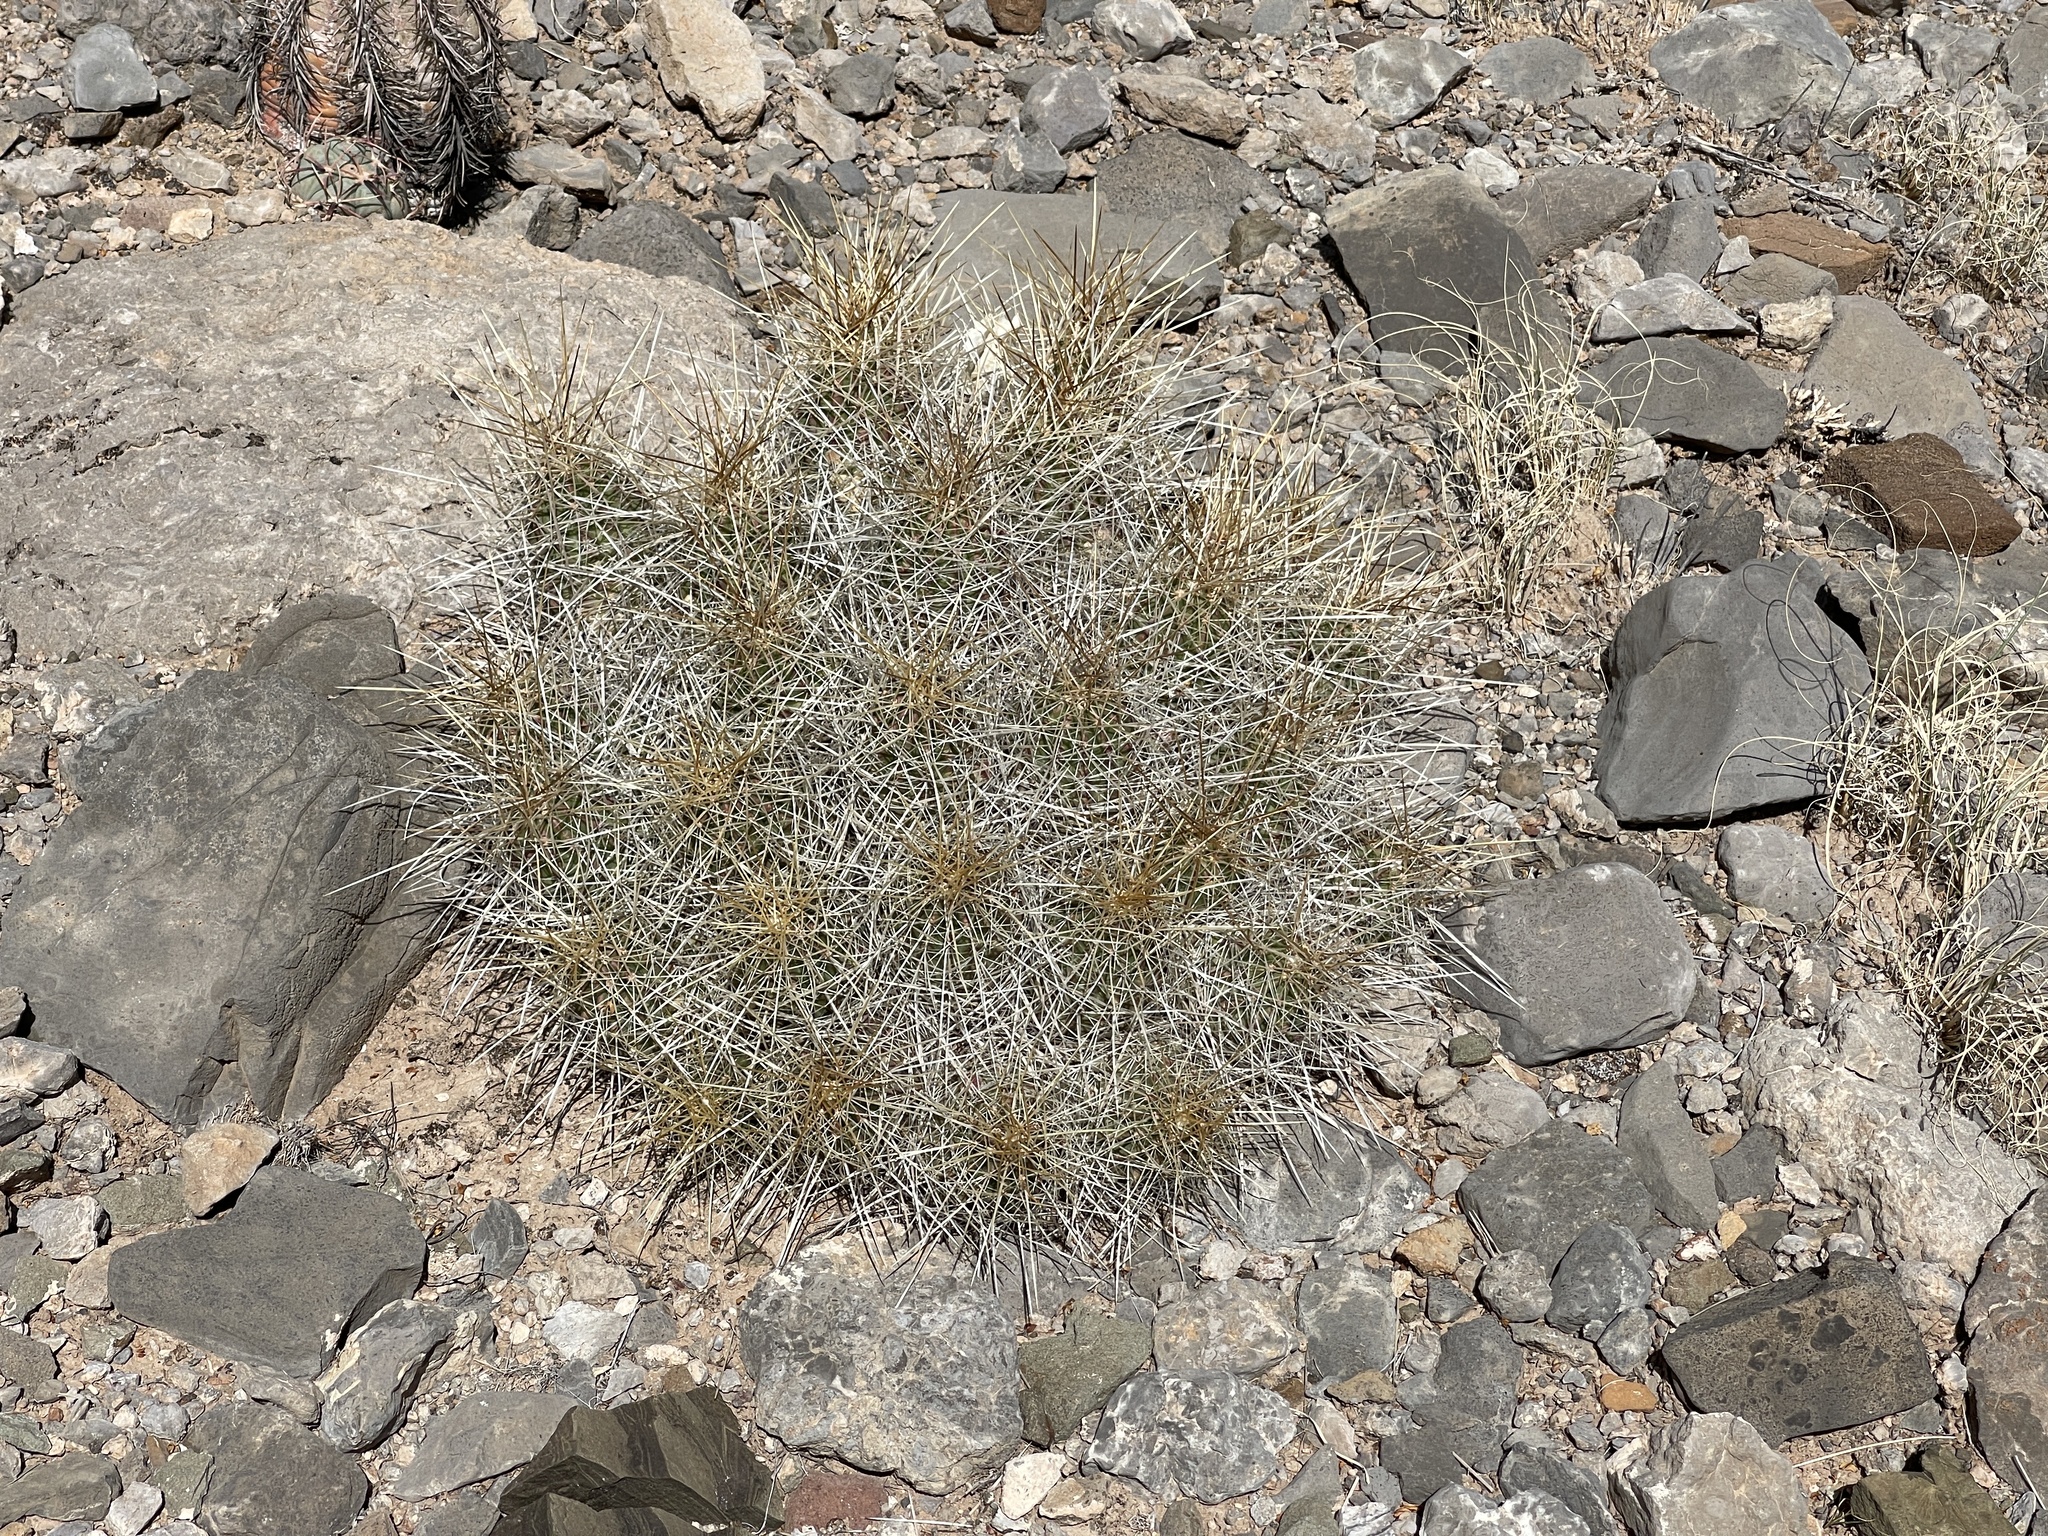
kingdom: Plantae
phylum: Tracheophyta
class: Magnoliopsida
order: Caryophyllales
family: Cactaceae
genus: Echinocereus
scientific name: Echinocereus stramineus
